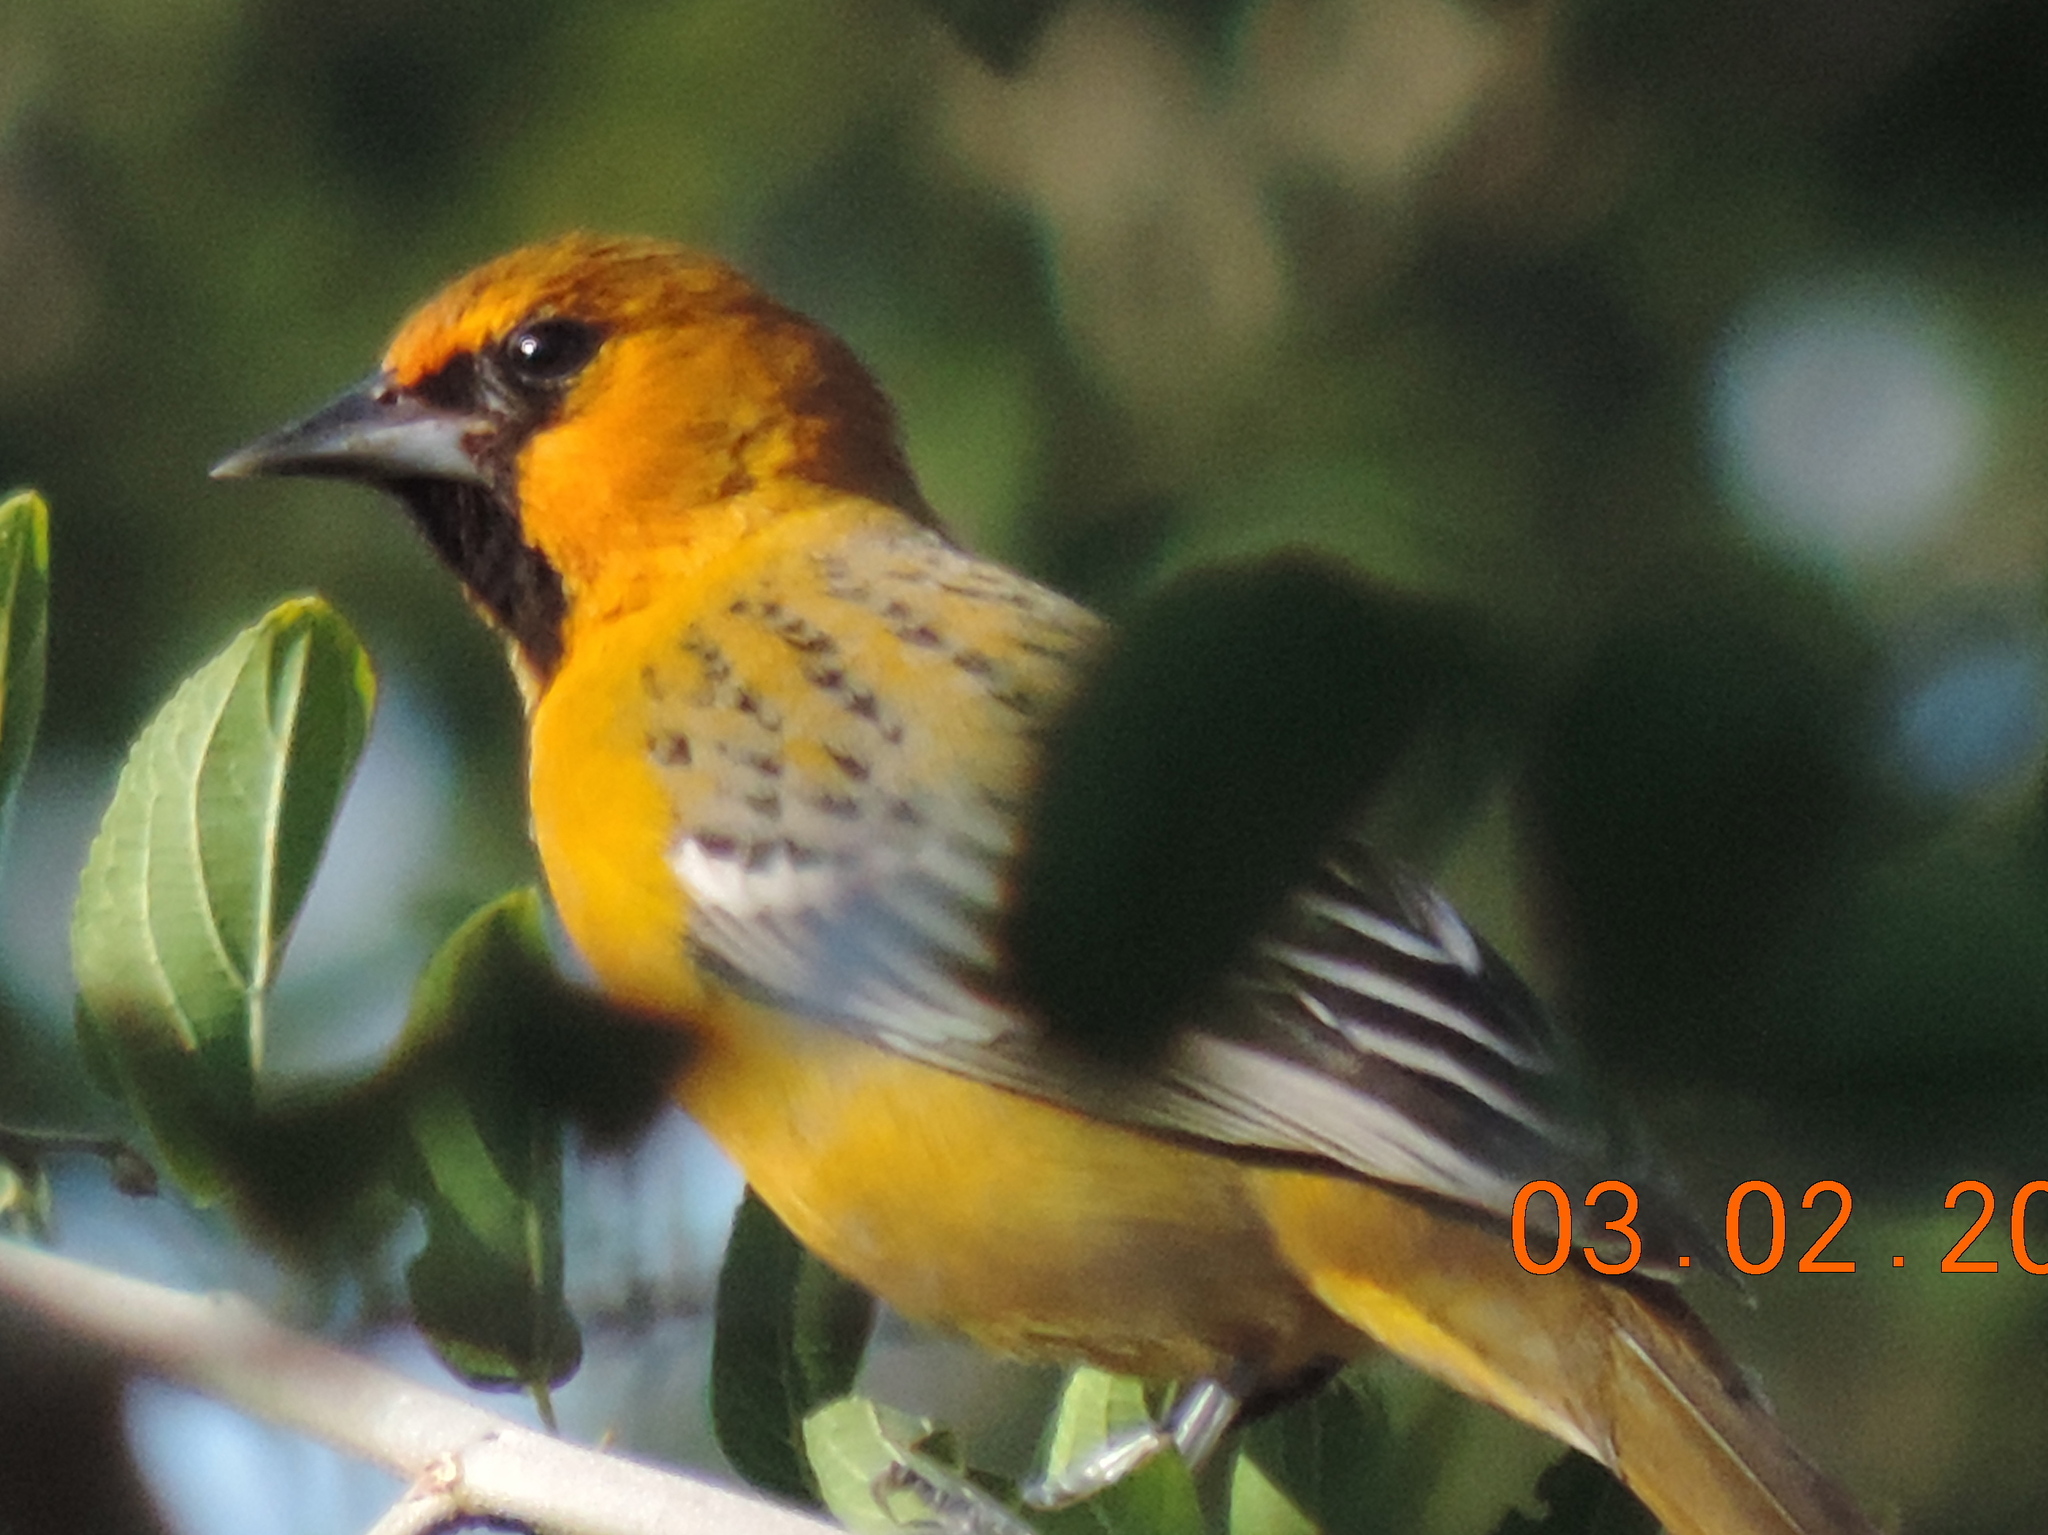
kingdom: Animalia
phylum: Chordata
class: Aves
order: Passeriformes
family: Icteridae
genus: Icterus
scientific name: Icterus pustulatus
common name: Streak-backed oriole
